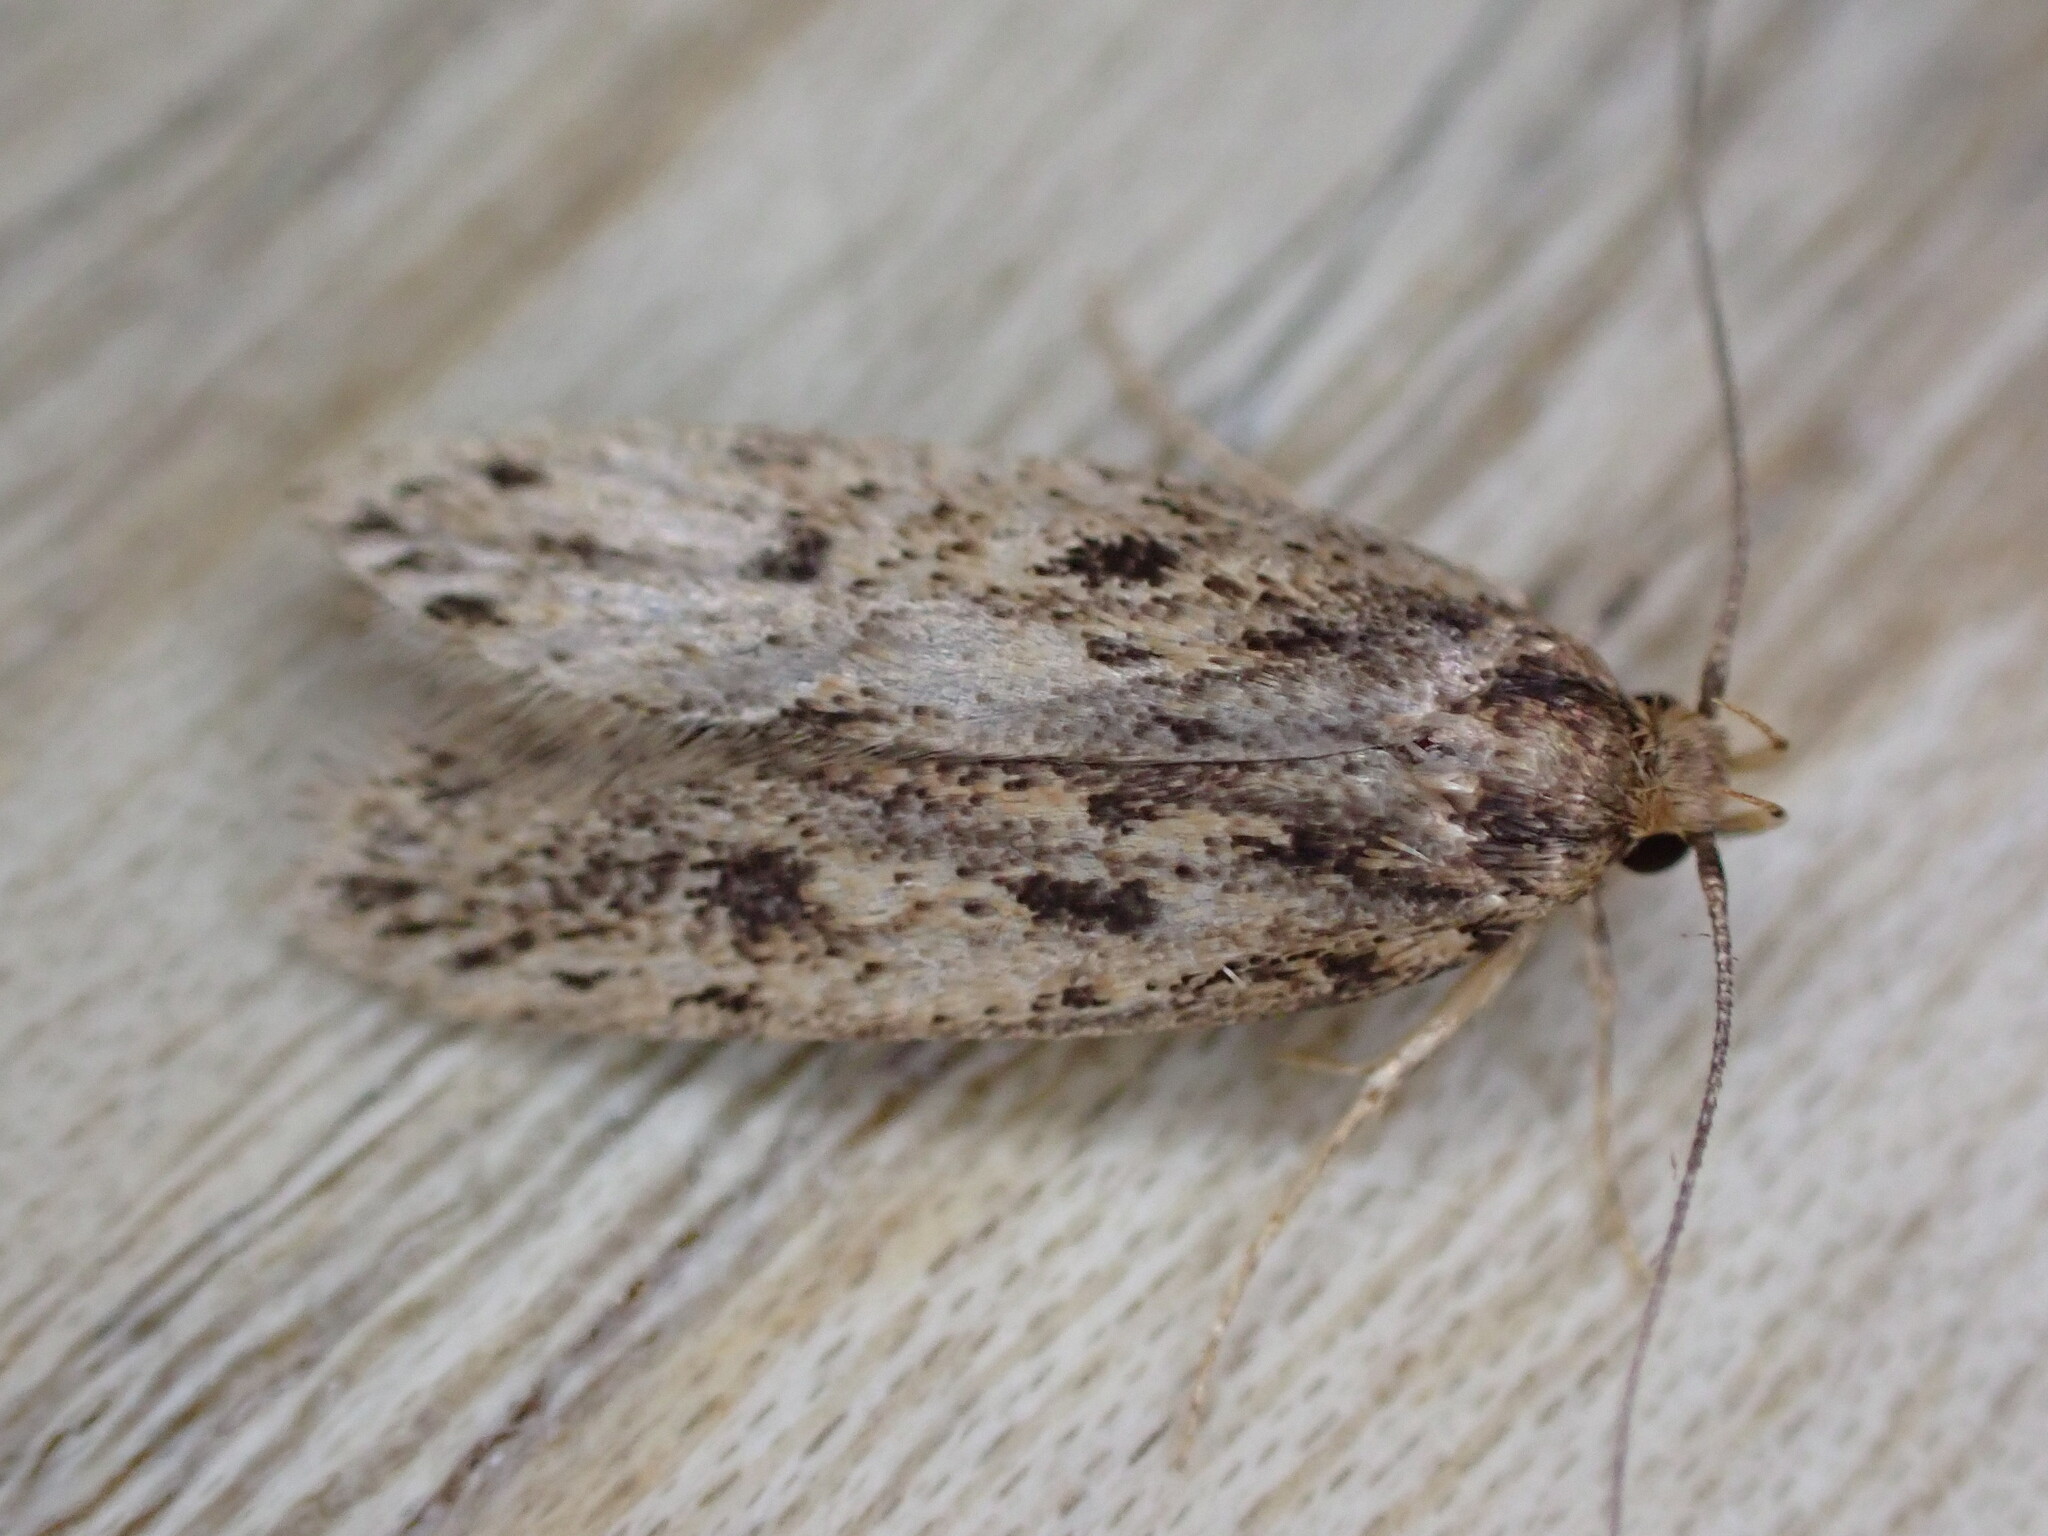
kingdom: Animalia
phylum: Arthropoda
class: Insecta
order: Lepidoptera
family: Oecophoridae
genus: Hofmannophila
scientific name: Hofmannophila pseudospretella
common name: Brown house moth
